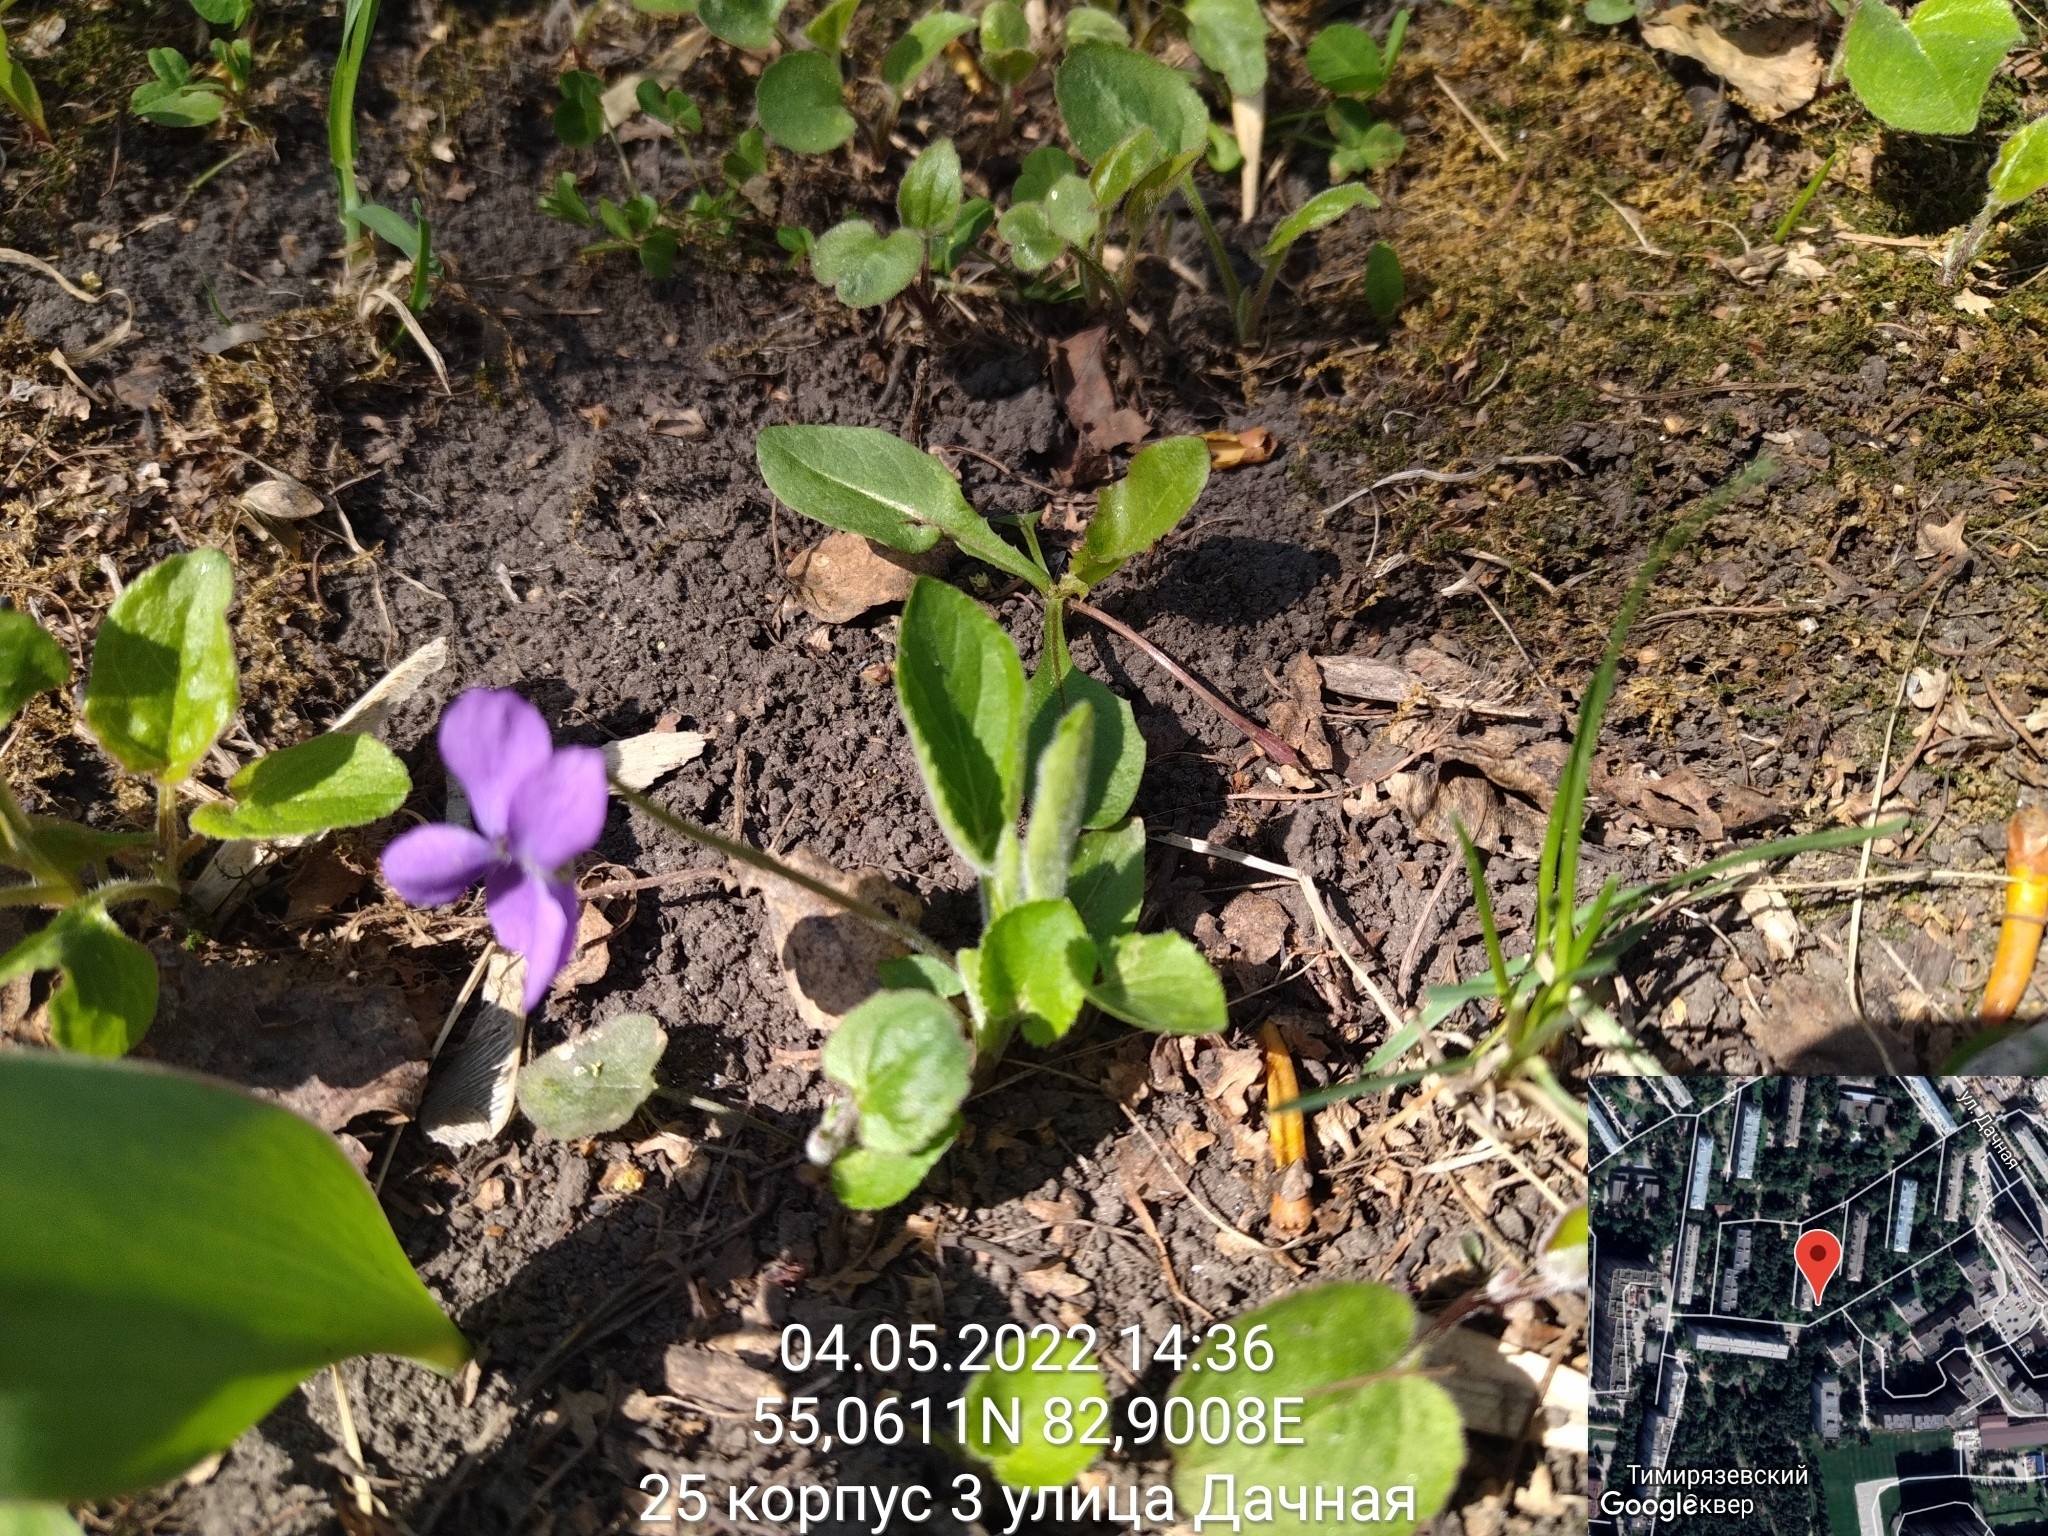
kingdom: Plantae
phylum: Tracheophyta
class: Magnoliopsida
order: Malpighiales
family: Violaceae
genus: Viola
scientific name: Viola hirta
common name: Hairy violet
